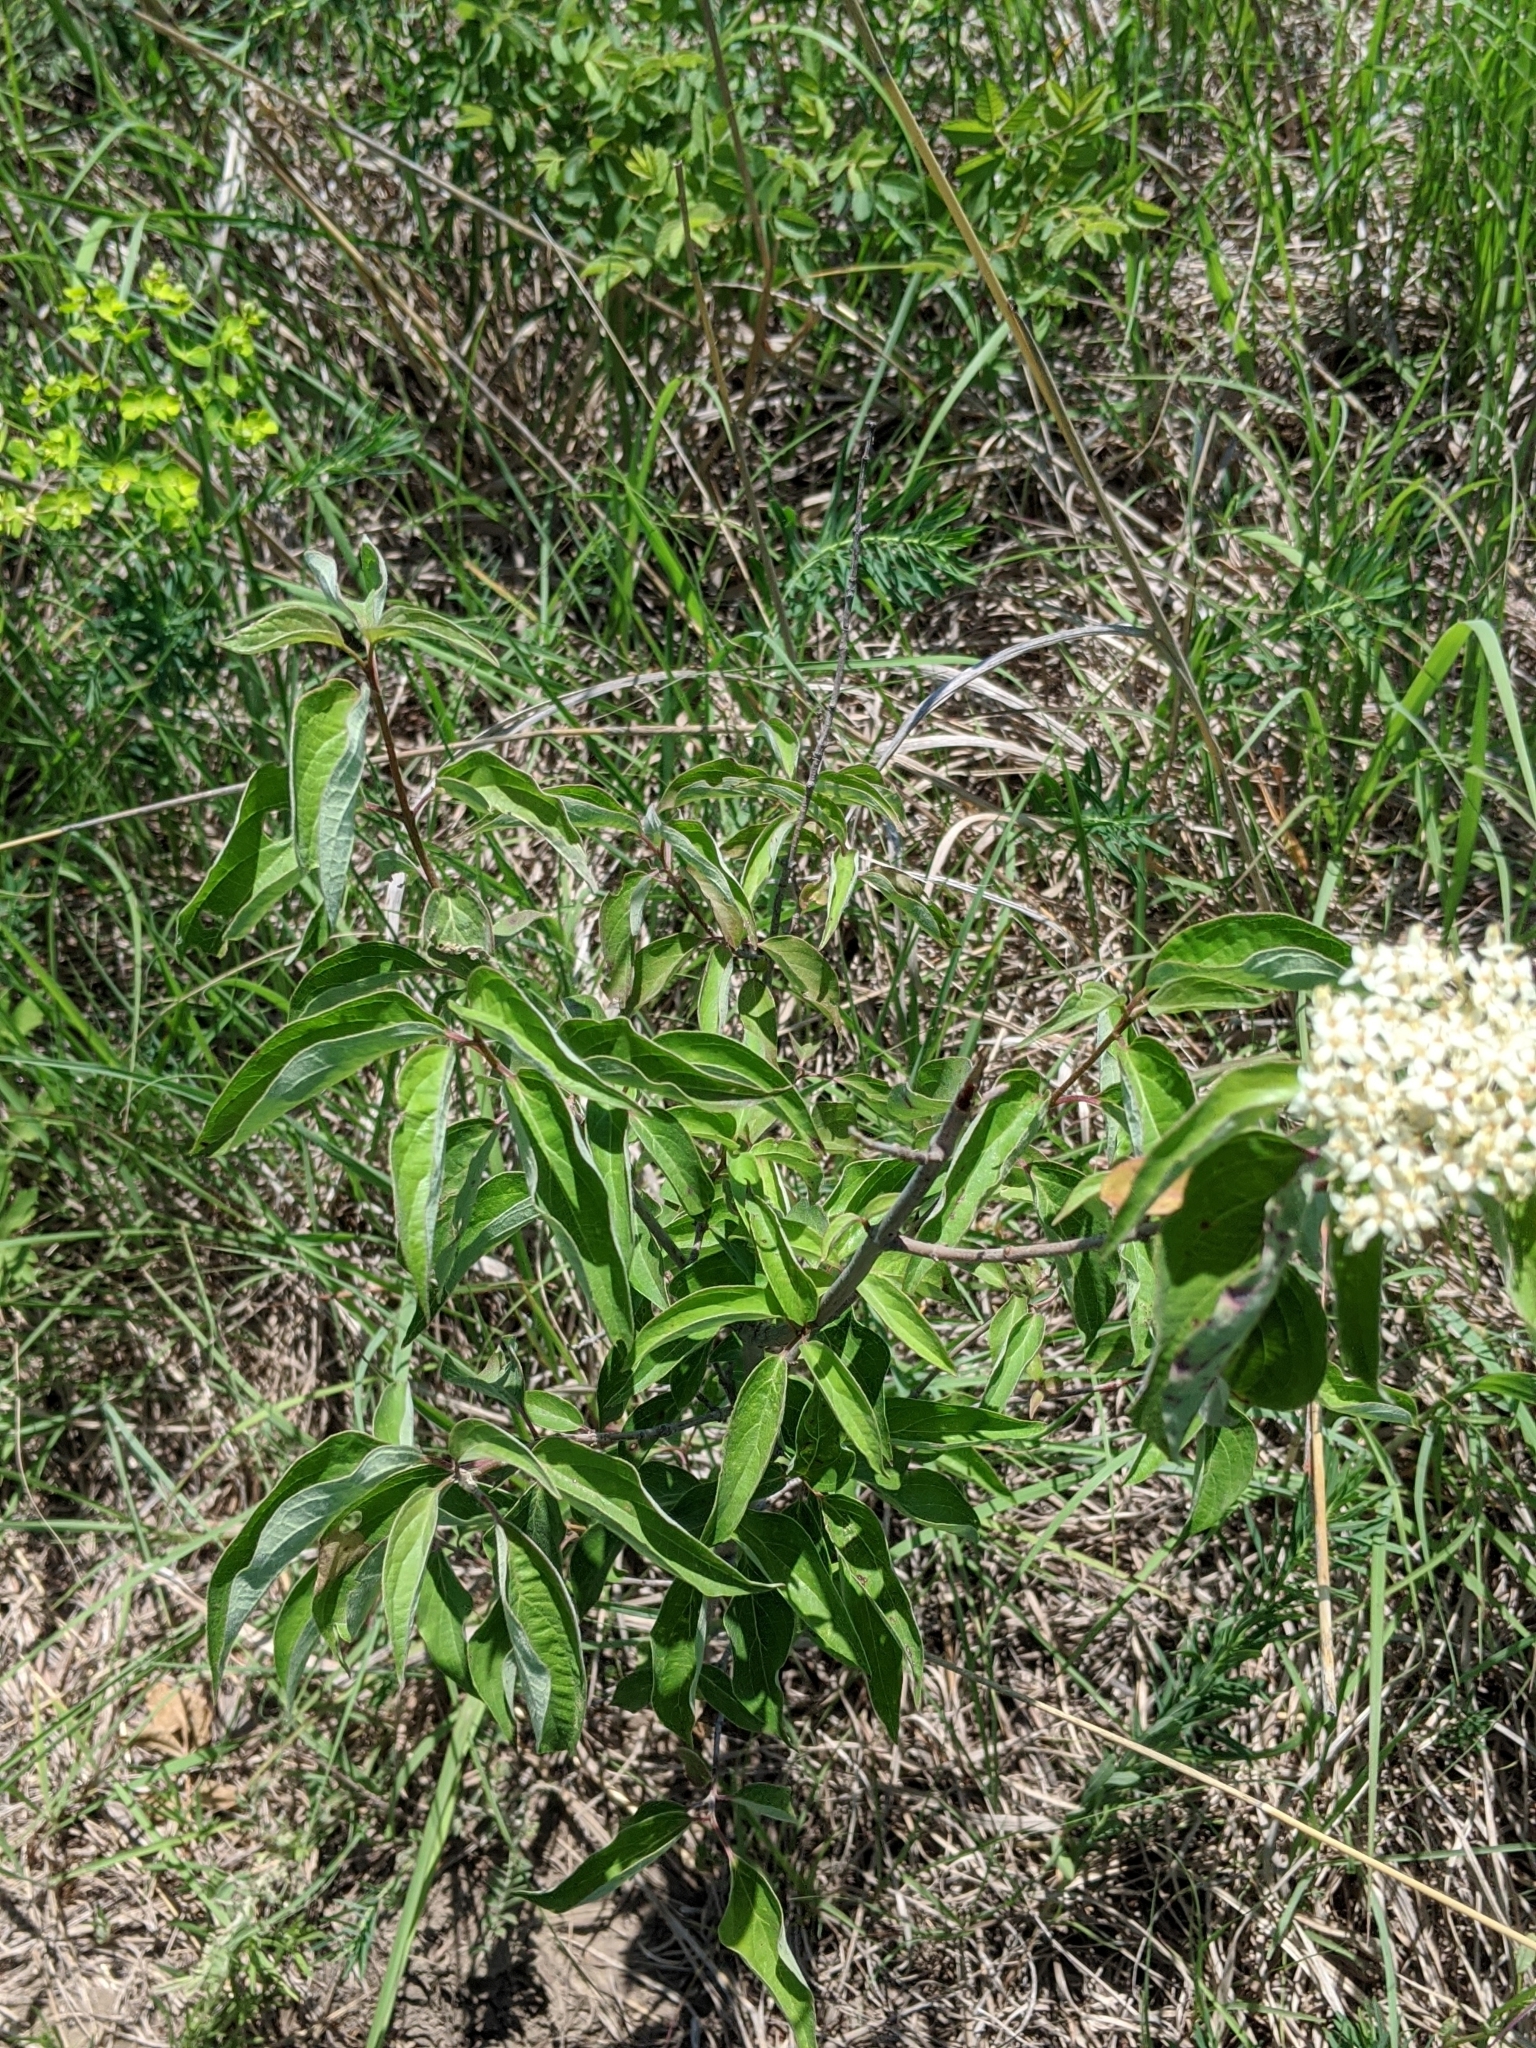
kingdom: Plantae
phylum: Tracheophyta
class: Magnoliopsida
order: Cornales
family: Cornaceae
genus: Cornus
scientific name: Cornus drummondii
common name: Rough-leaf dogwood
